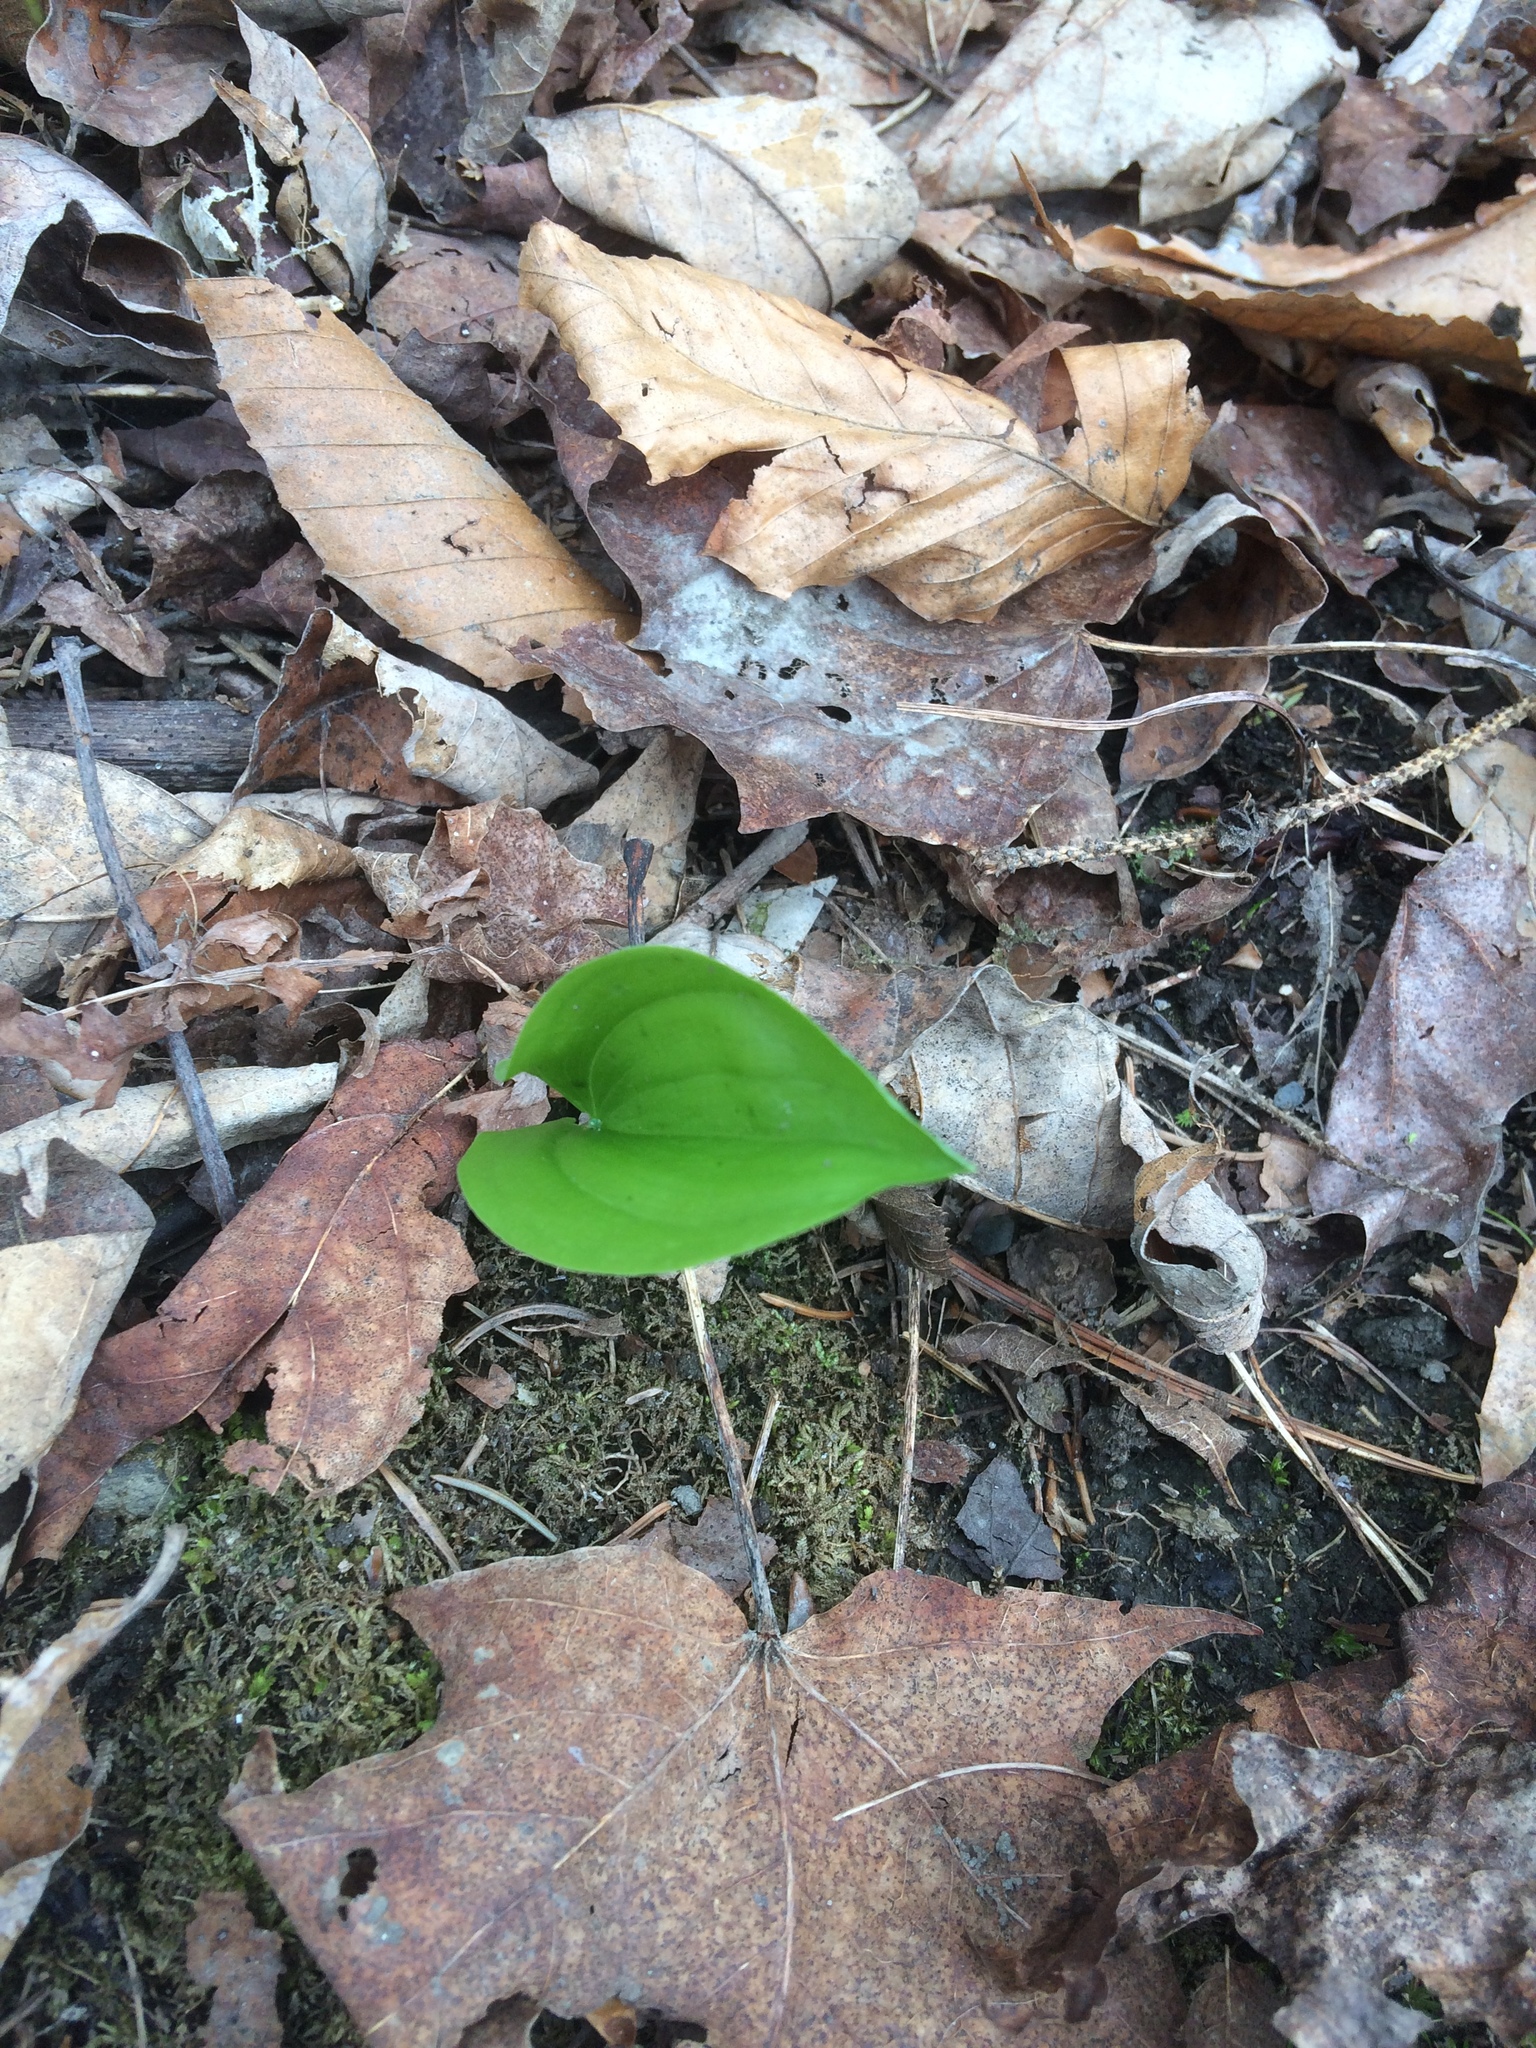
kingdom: Plantae
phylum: Tracheophyta
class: Liliopsida
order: Asparagales
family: Asparagaceae
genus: Maianthemum
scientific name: Maianthemum canadense
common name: False lily-of-the-valley
